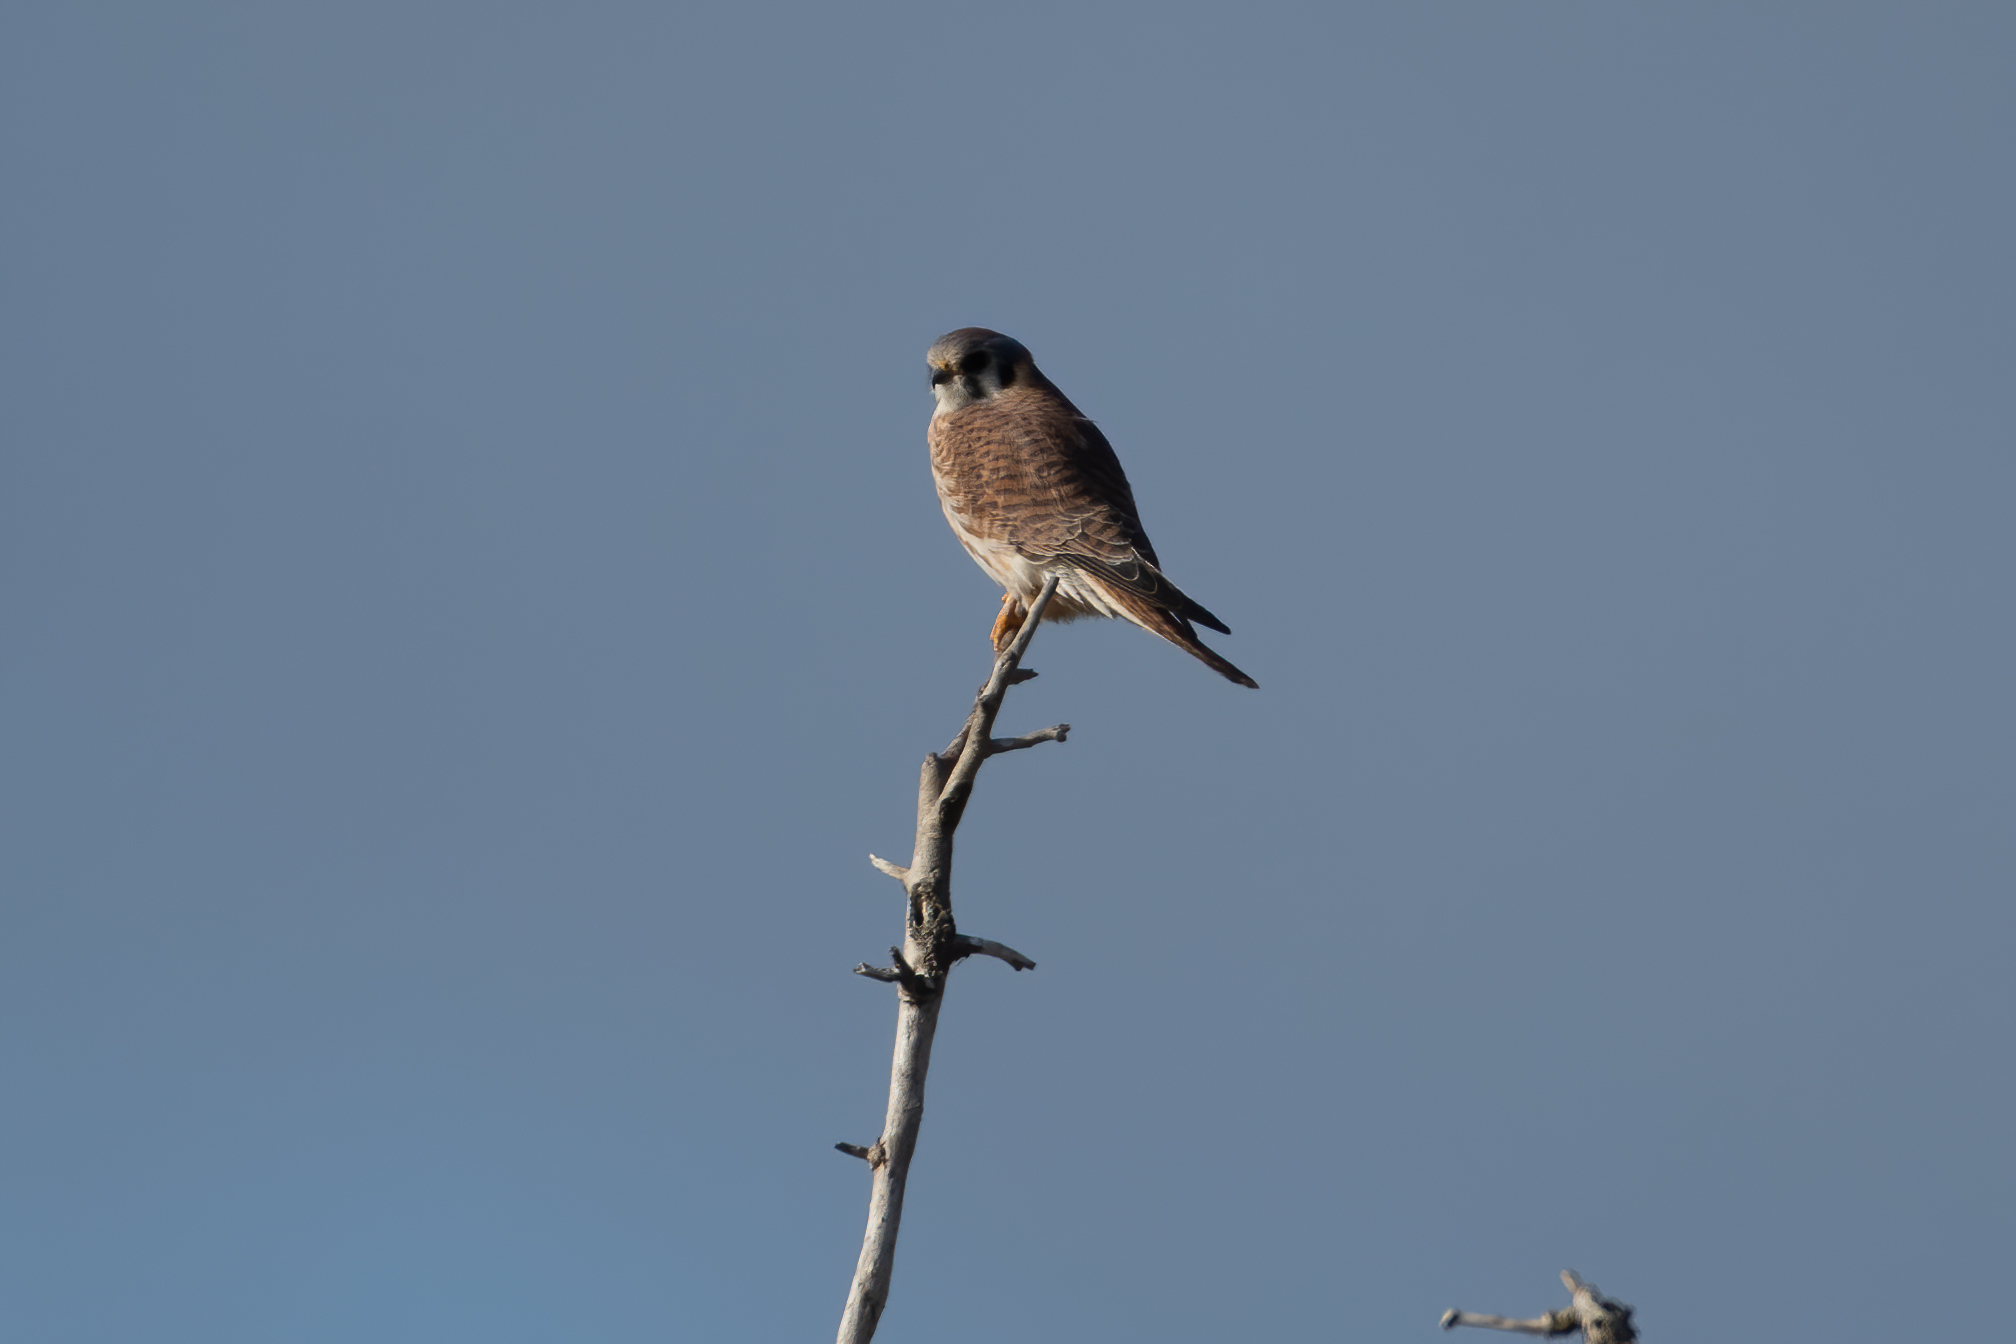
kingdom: Animalia
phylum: Chordata
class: Aves
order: Falconiformes
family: Falconidae
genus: Falco
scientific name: Falco sparverius
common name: American kestrel
